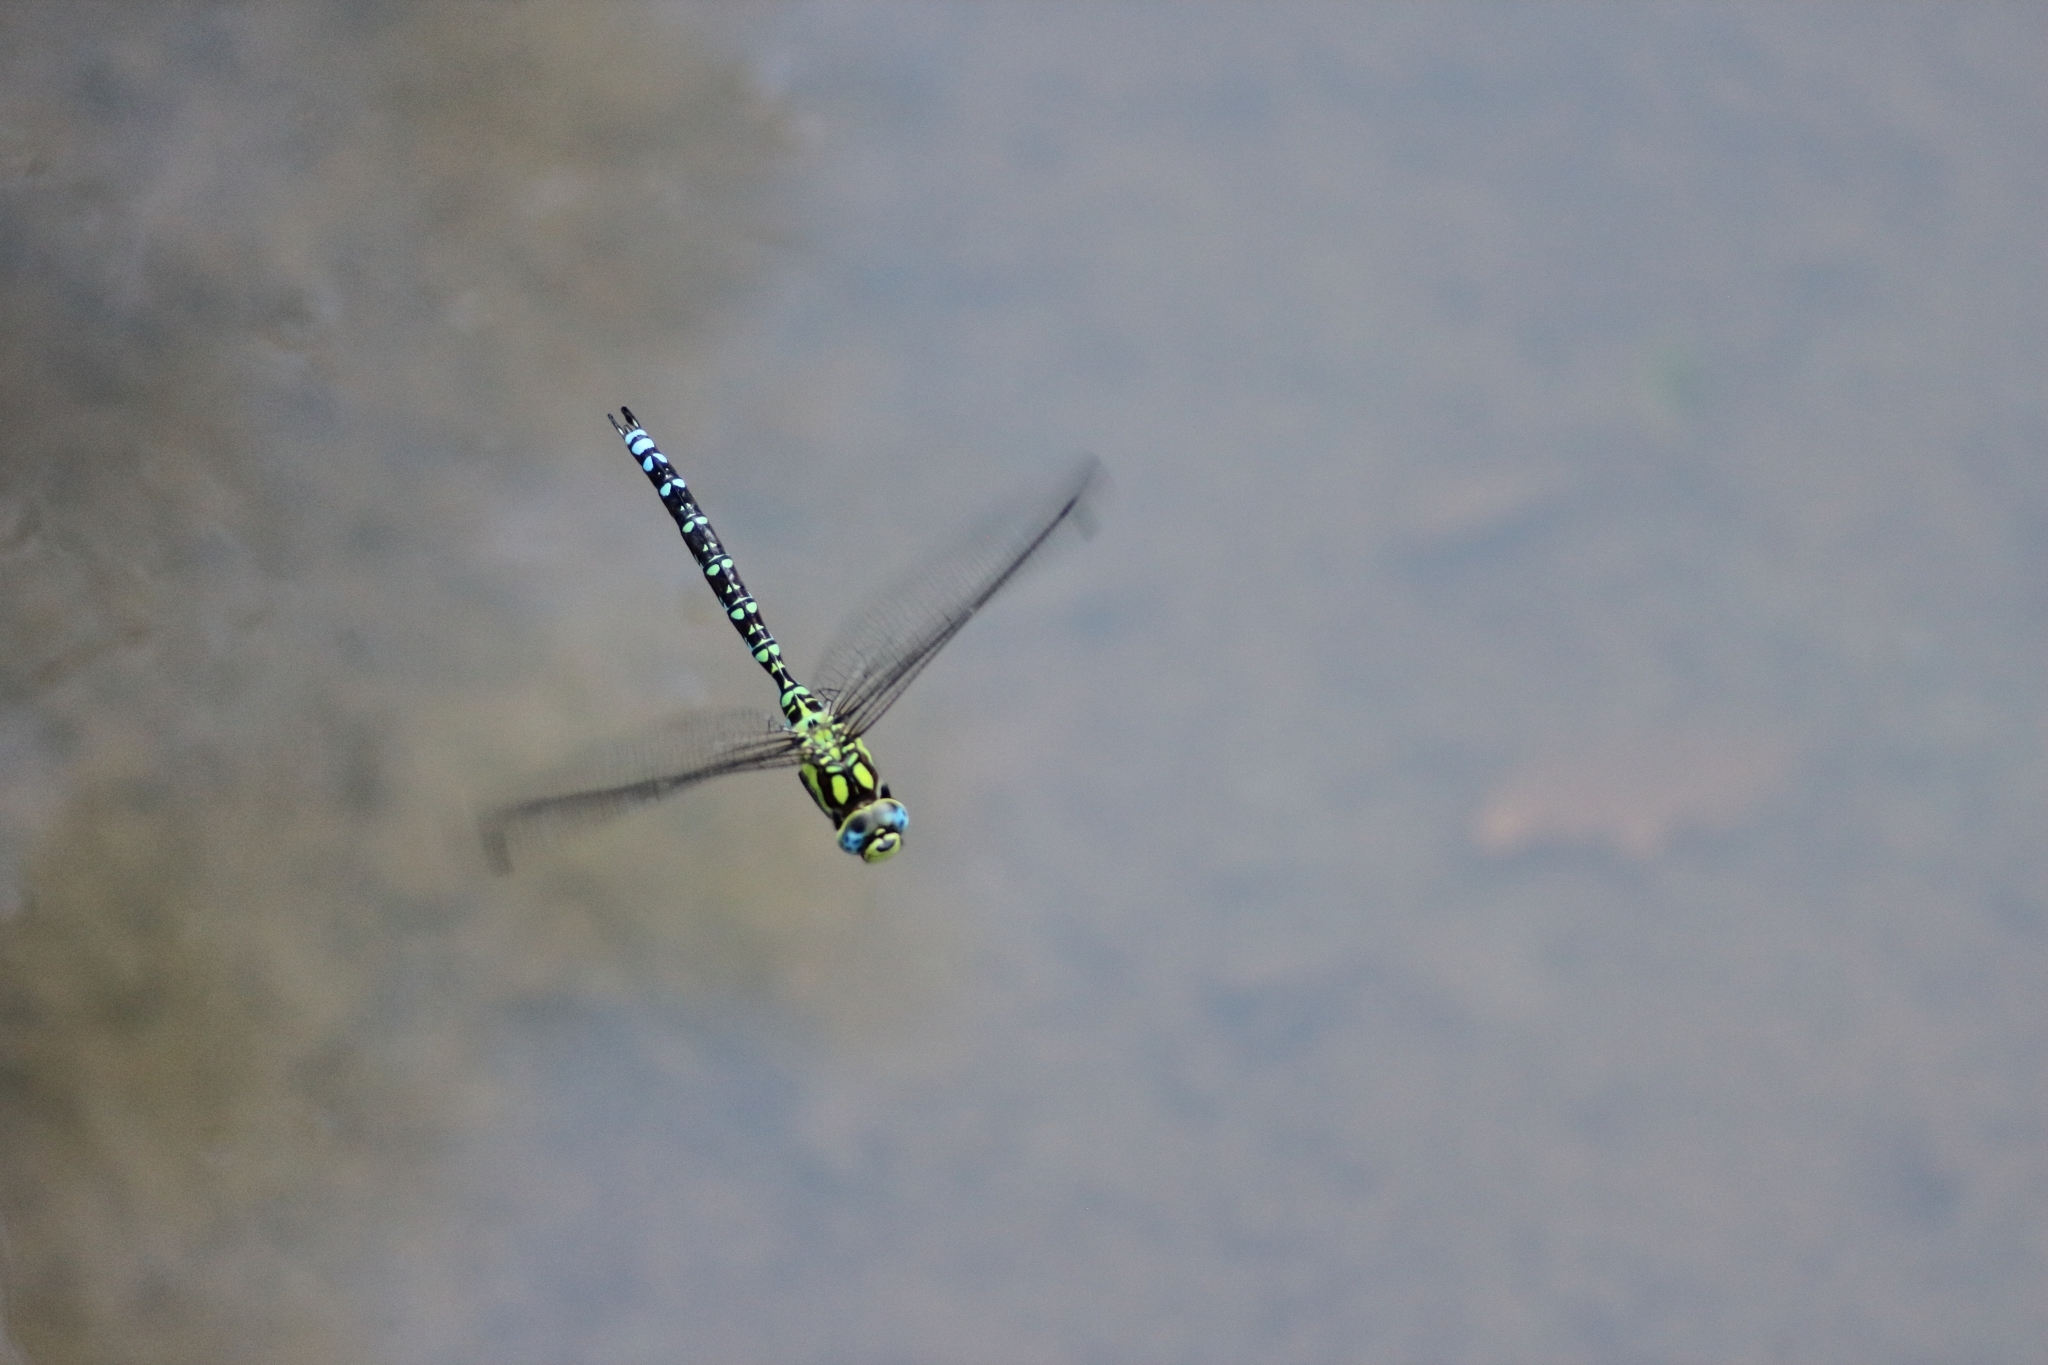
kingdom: Animalia
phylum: Arthropoda
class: Insecta
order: Odonata
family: Aeshnidae
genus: Aeshna
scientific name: Aeshna cyanea
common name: Southern hawker
